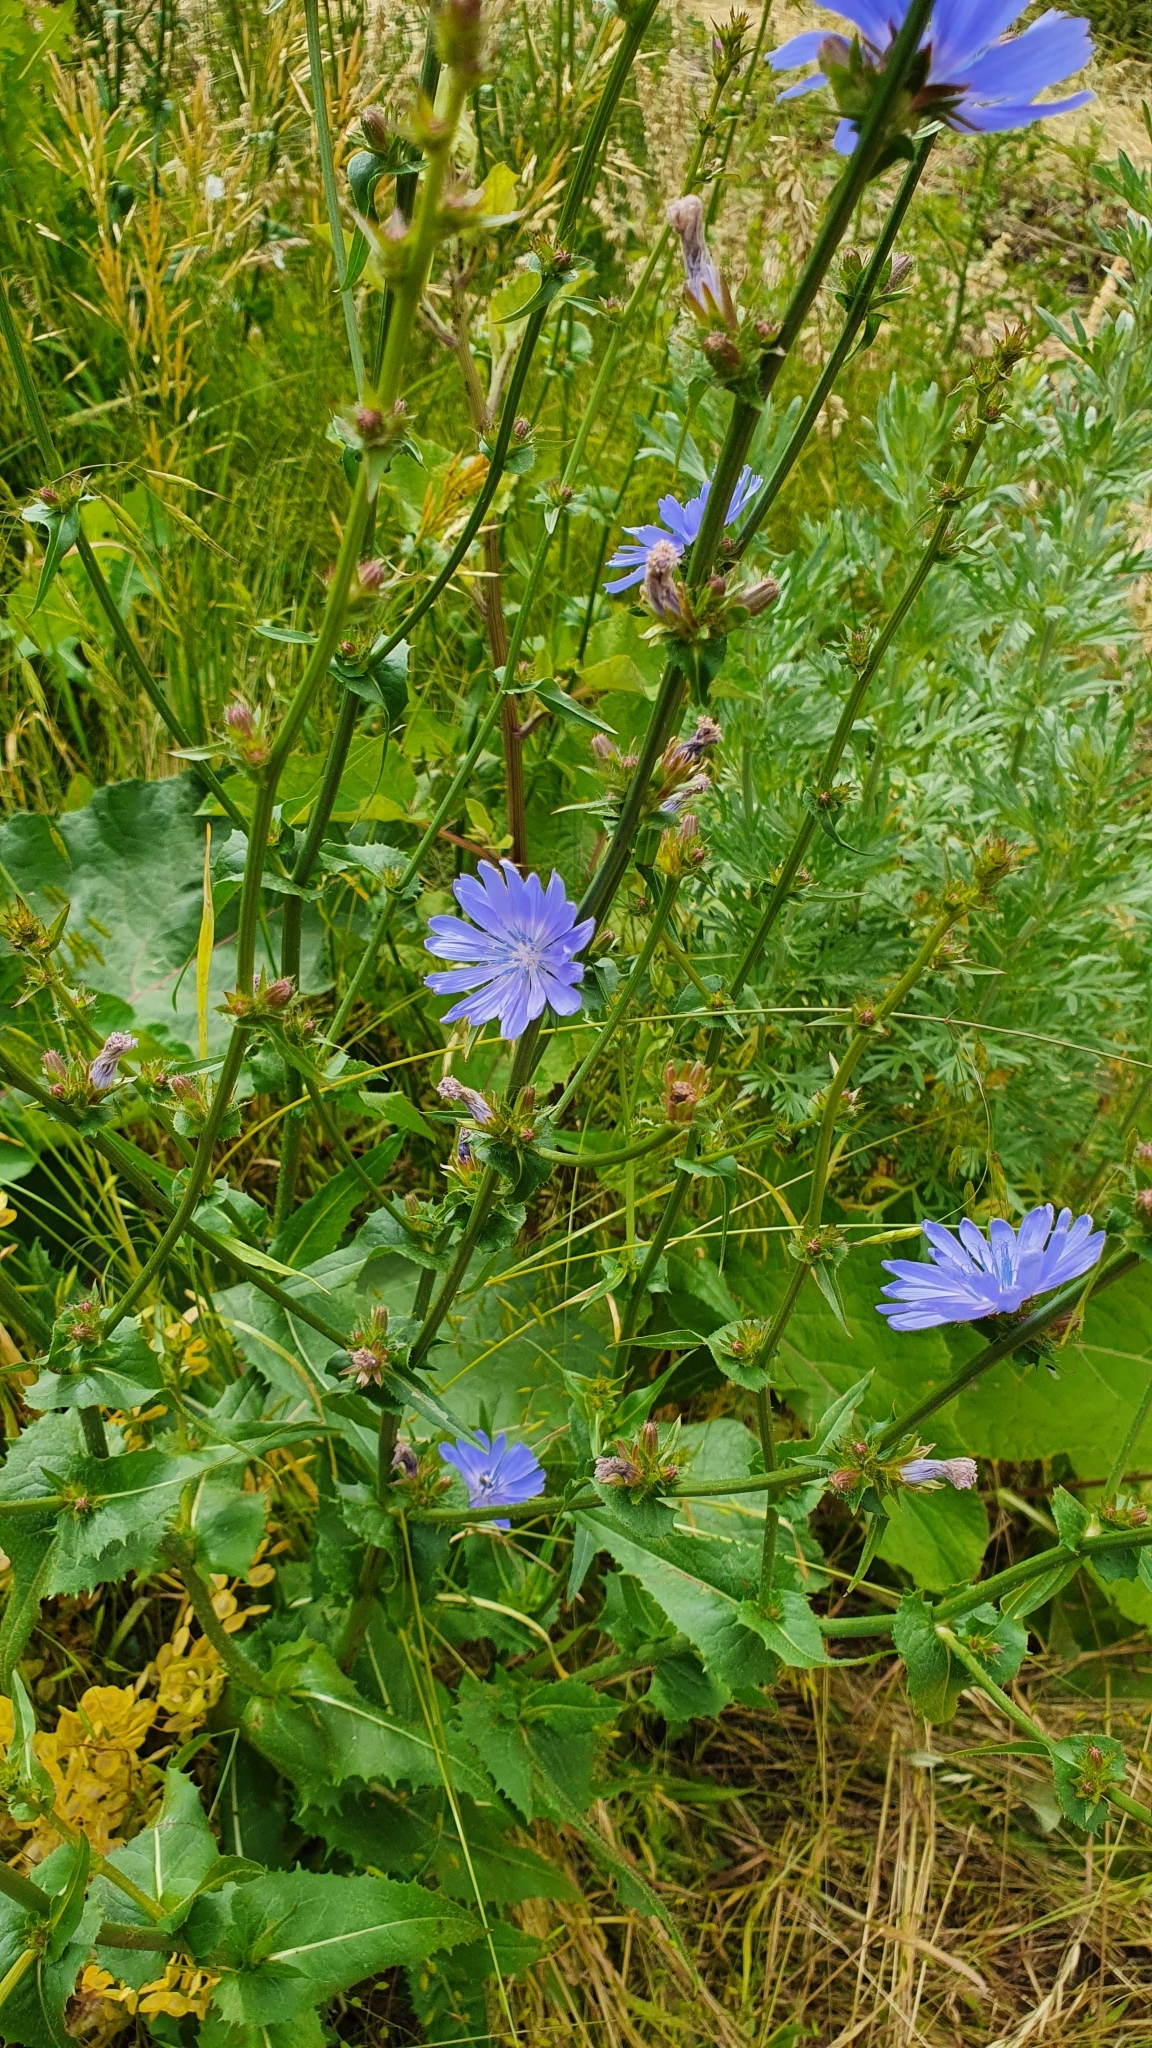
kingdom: Plantae
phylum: Tracheophyta
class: Magnoliopsida
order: Asterales
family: Asteraceae
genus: Cichorium
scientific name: Cichorium intybus
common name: Chicory
